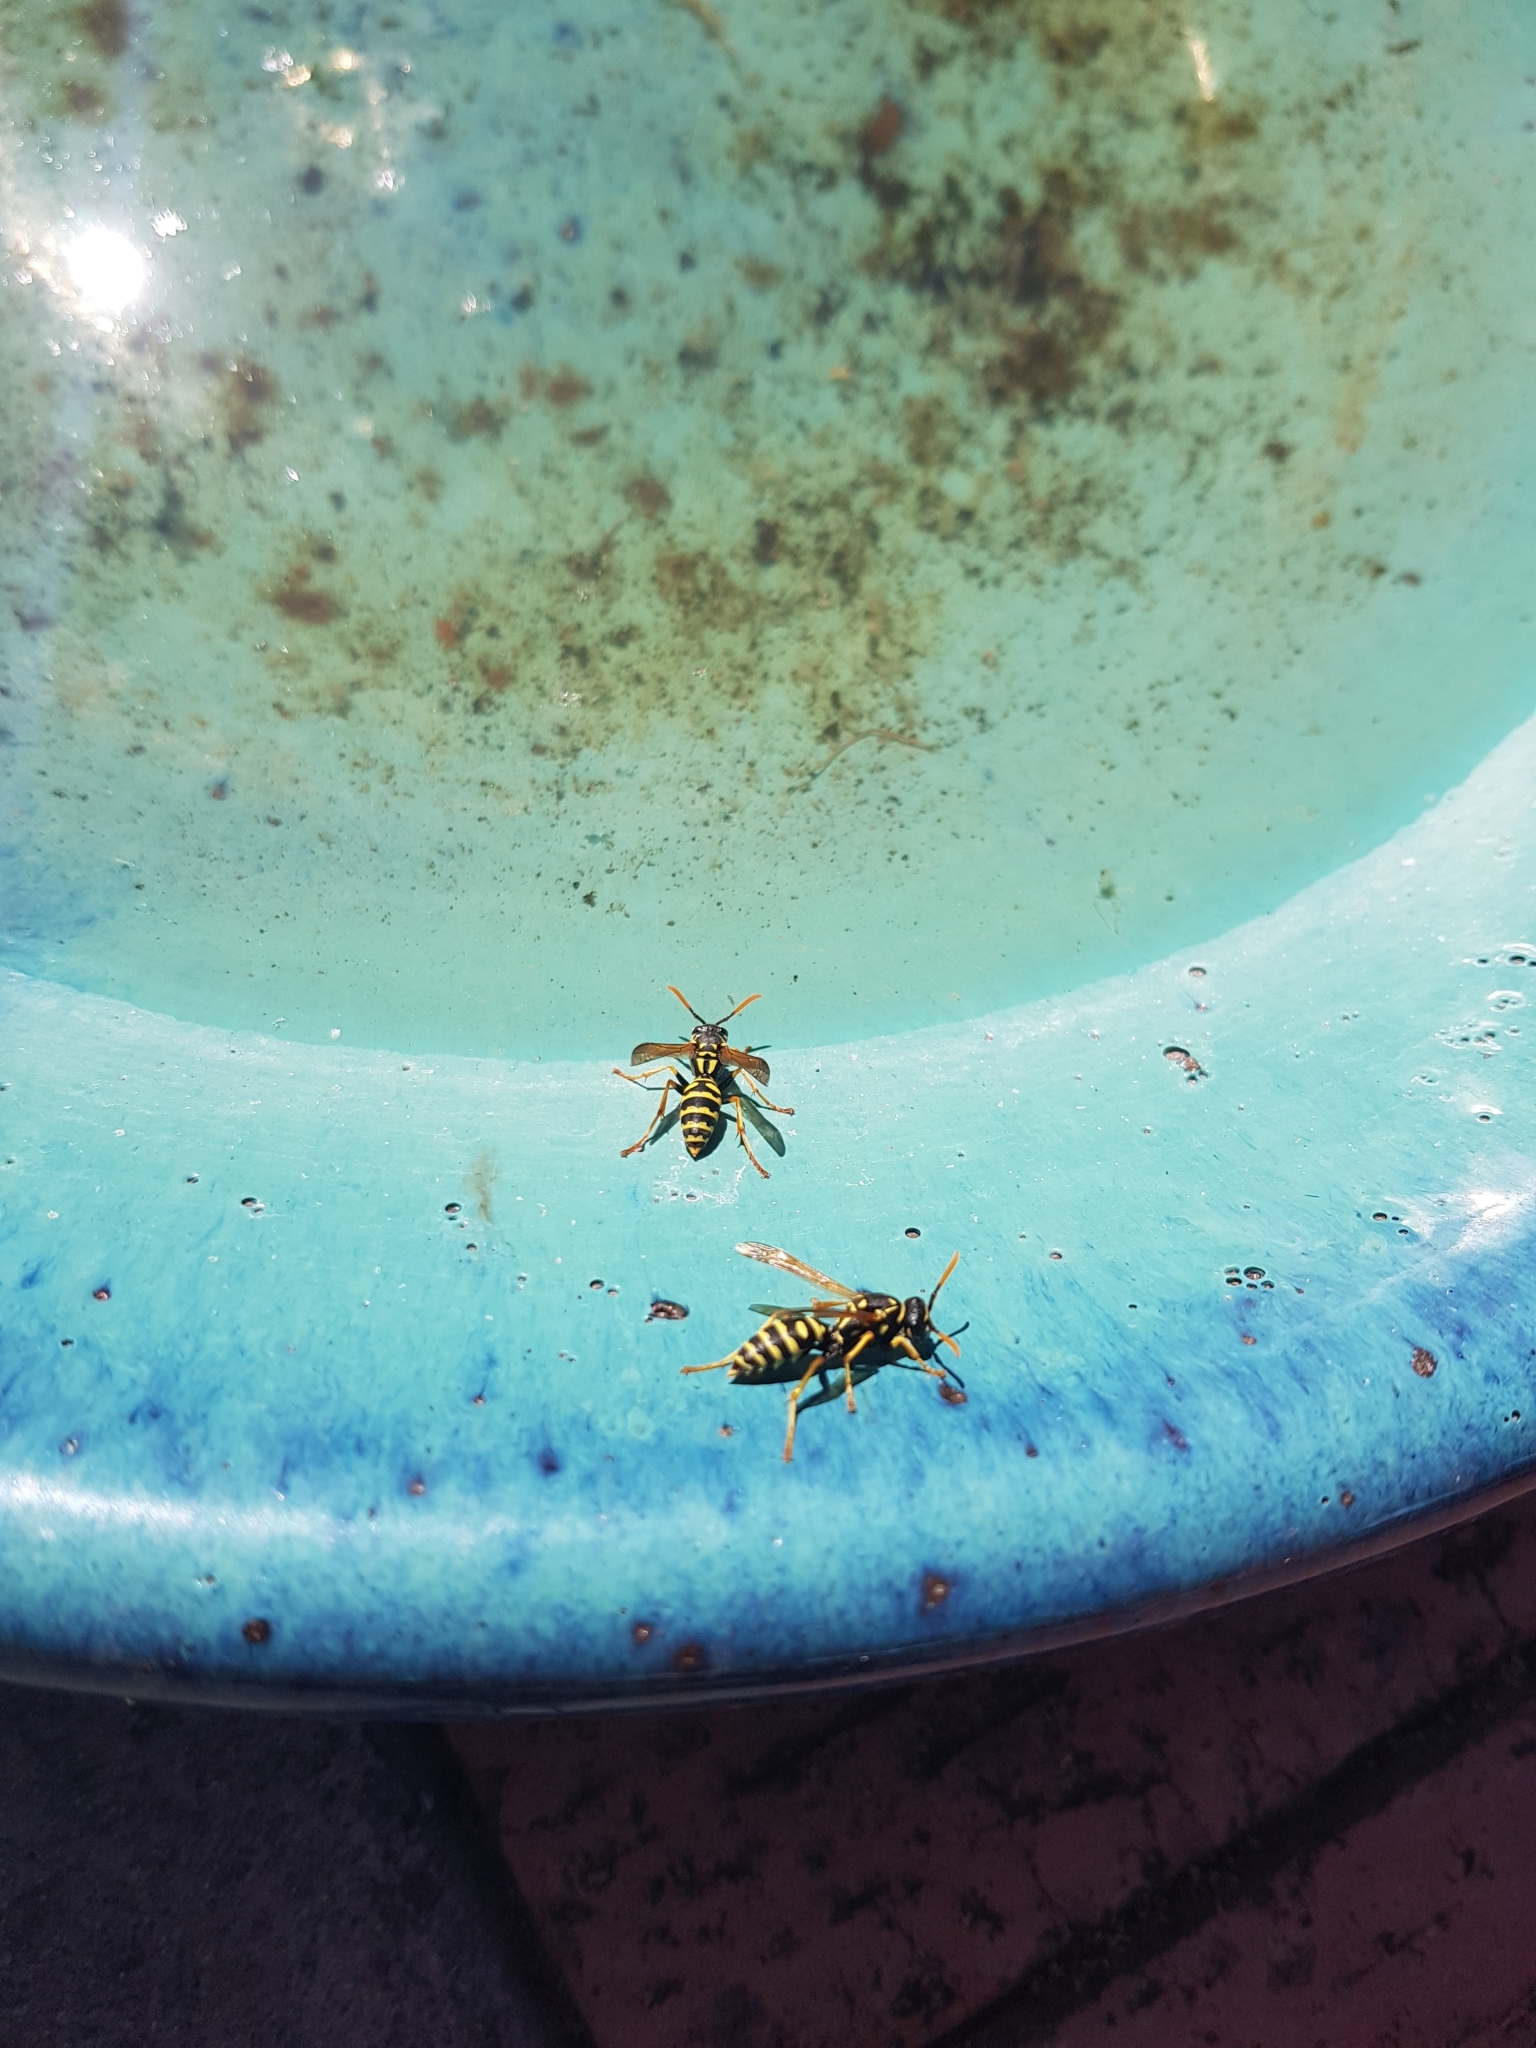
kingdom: Animalia
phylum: Arthropoda
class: Insecta
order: Hymenoptera
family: Eumenidae
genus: Polistes
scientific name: Polistes dominula
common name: Paper wasp
